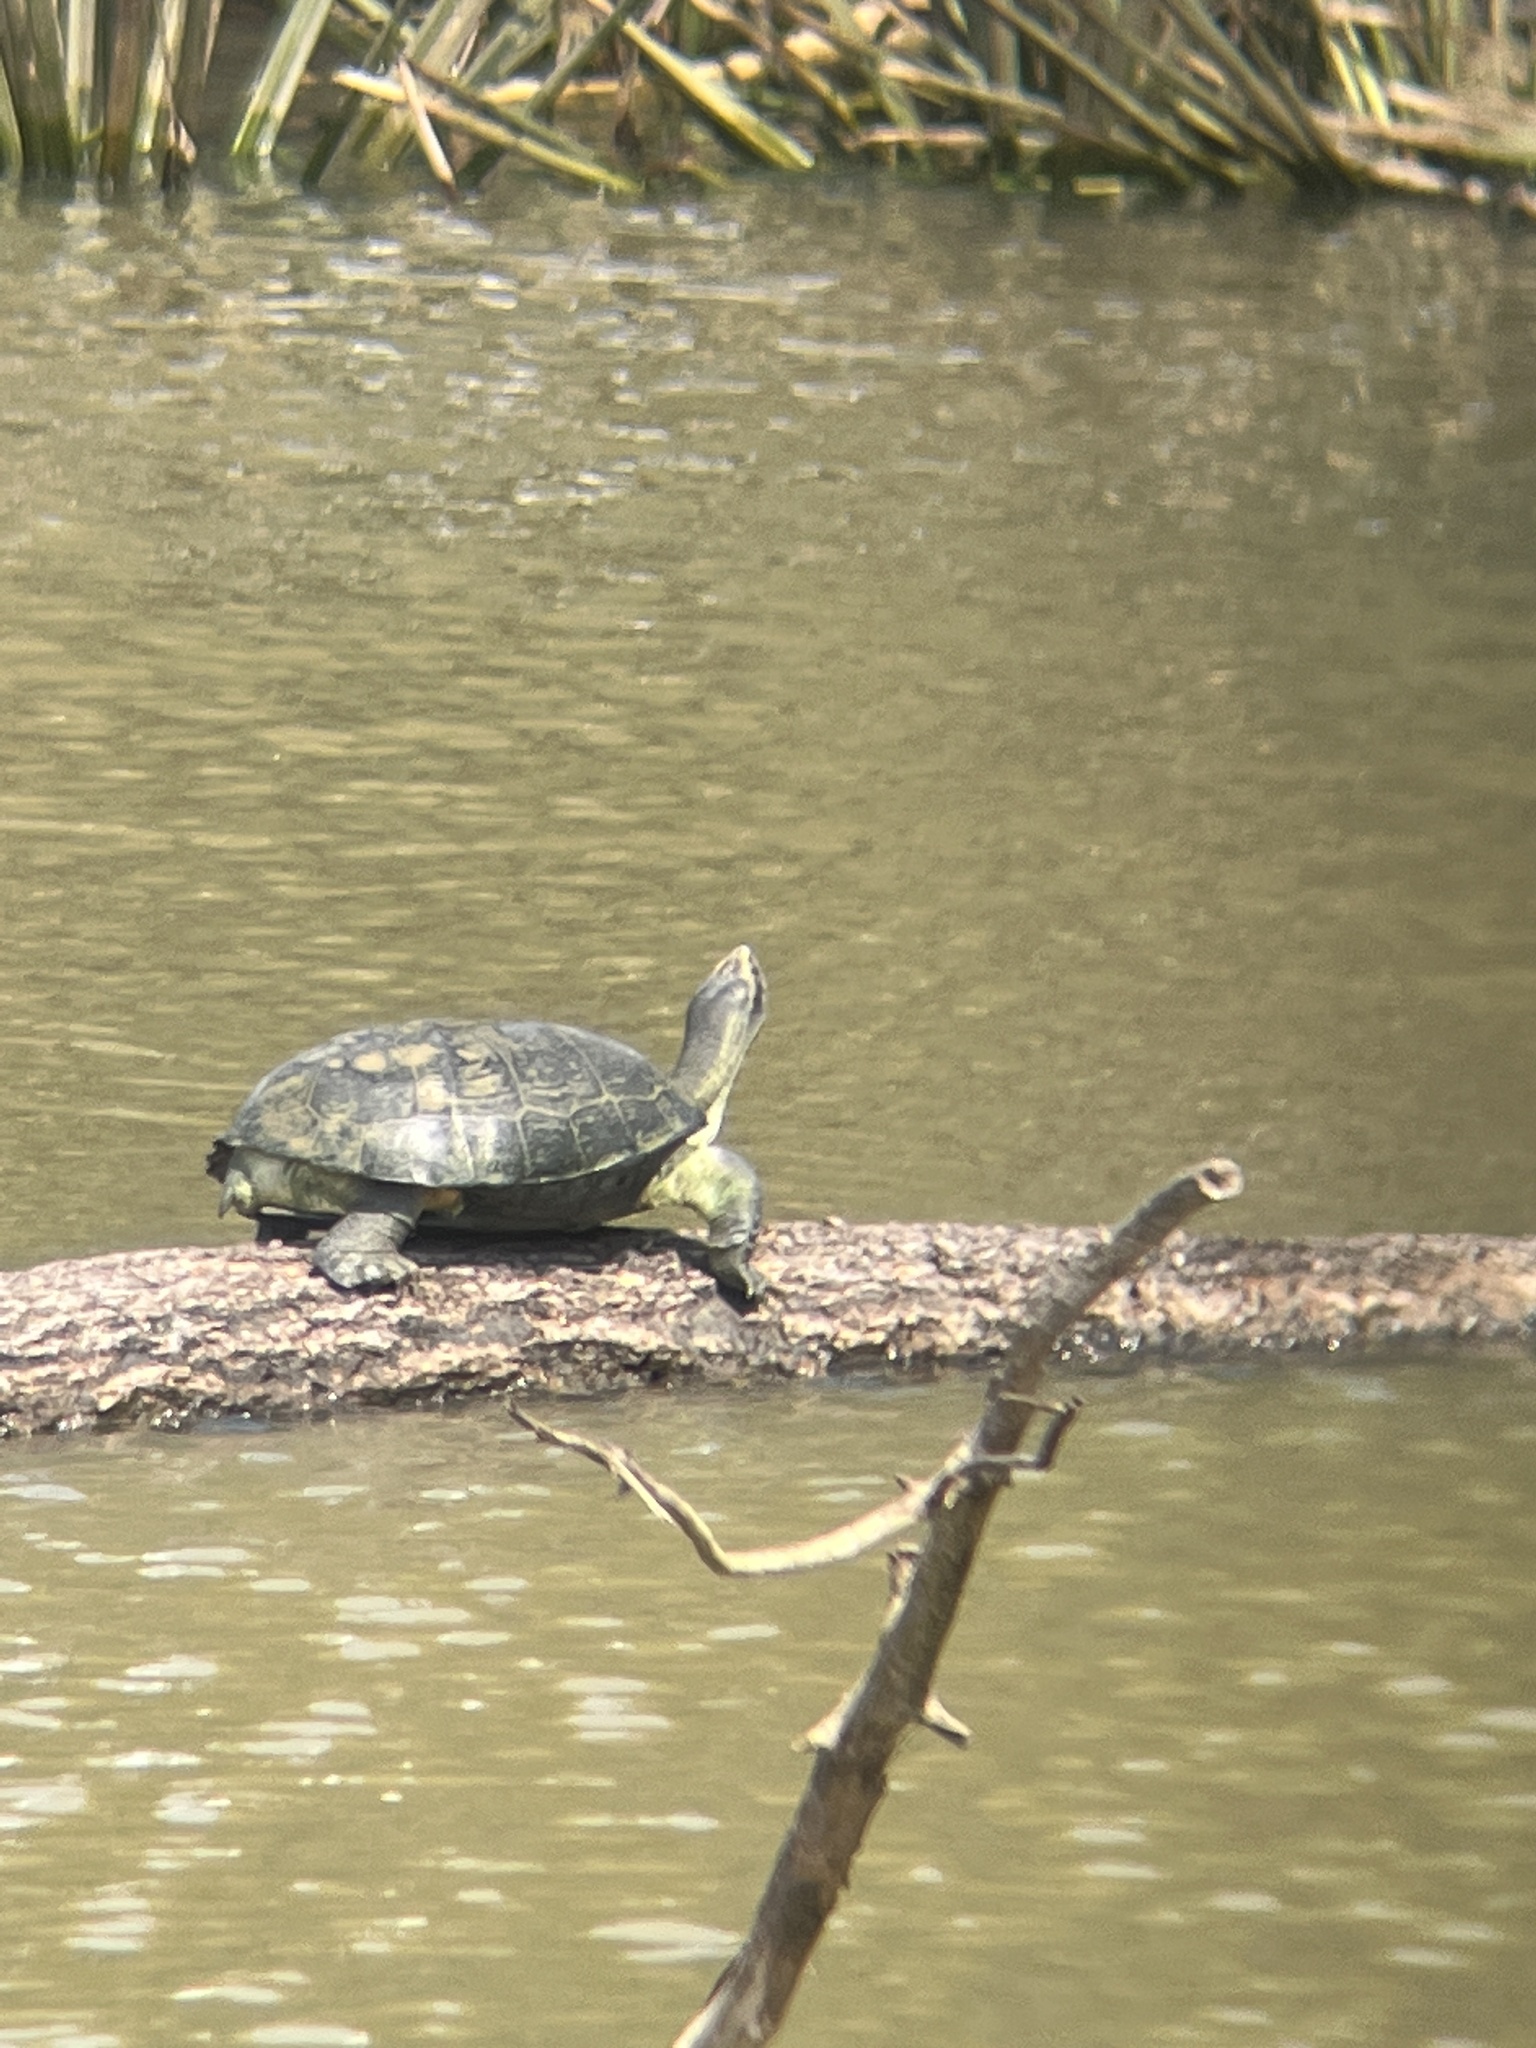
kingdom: Animalia
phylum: Chordata
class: Testudines
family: Geoemydidae
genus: Heosemys
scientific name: Heosemys annandalii
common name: Yellow-headed temple turtle
